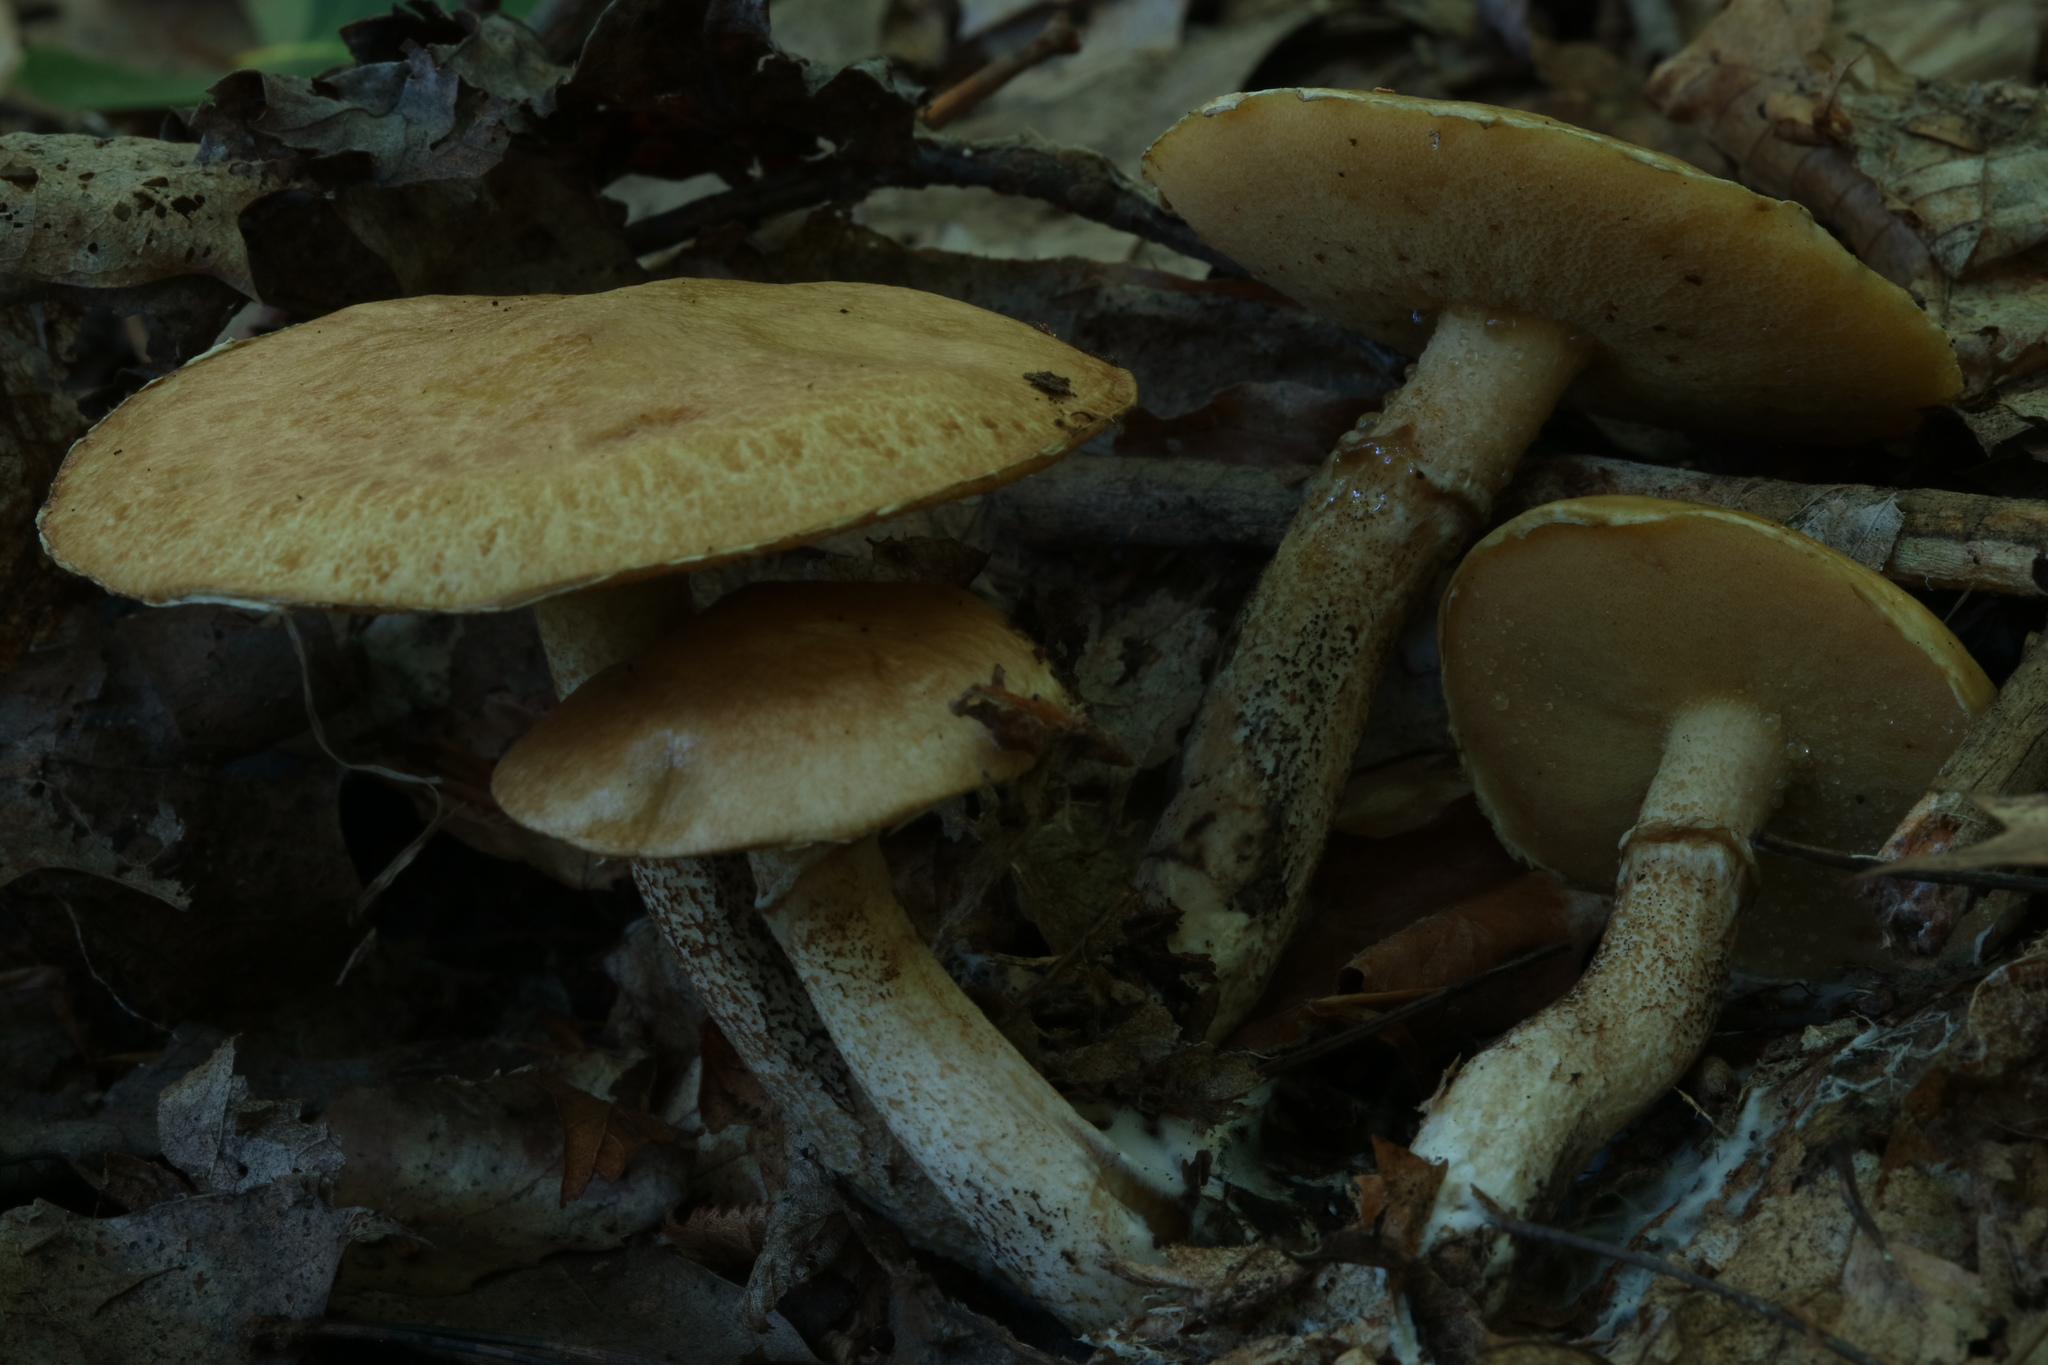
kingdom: Fungi
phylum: Basidiomycota
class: Agaricomycetes
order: Boletales
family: Suillaceae
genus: Suillus
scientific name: Suillus acidus
